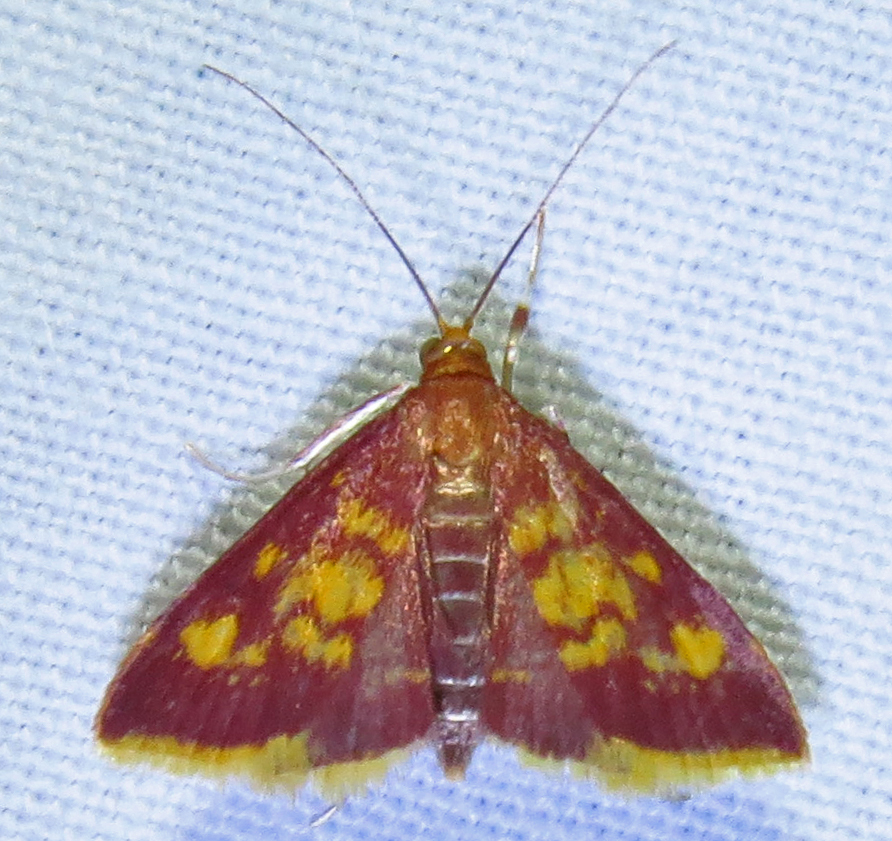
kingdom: Animalia
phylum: Arthropoda
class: Insecta
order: Lepidoptera
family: Crambidae
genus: Pyrausta
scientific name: Pyrausta acrionalis
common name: Mint-loving pyrausta moth
